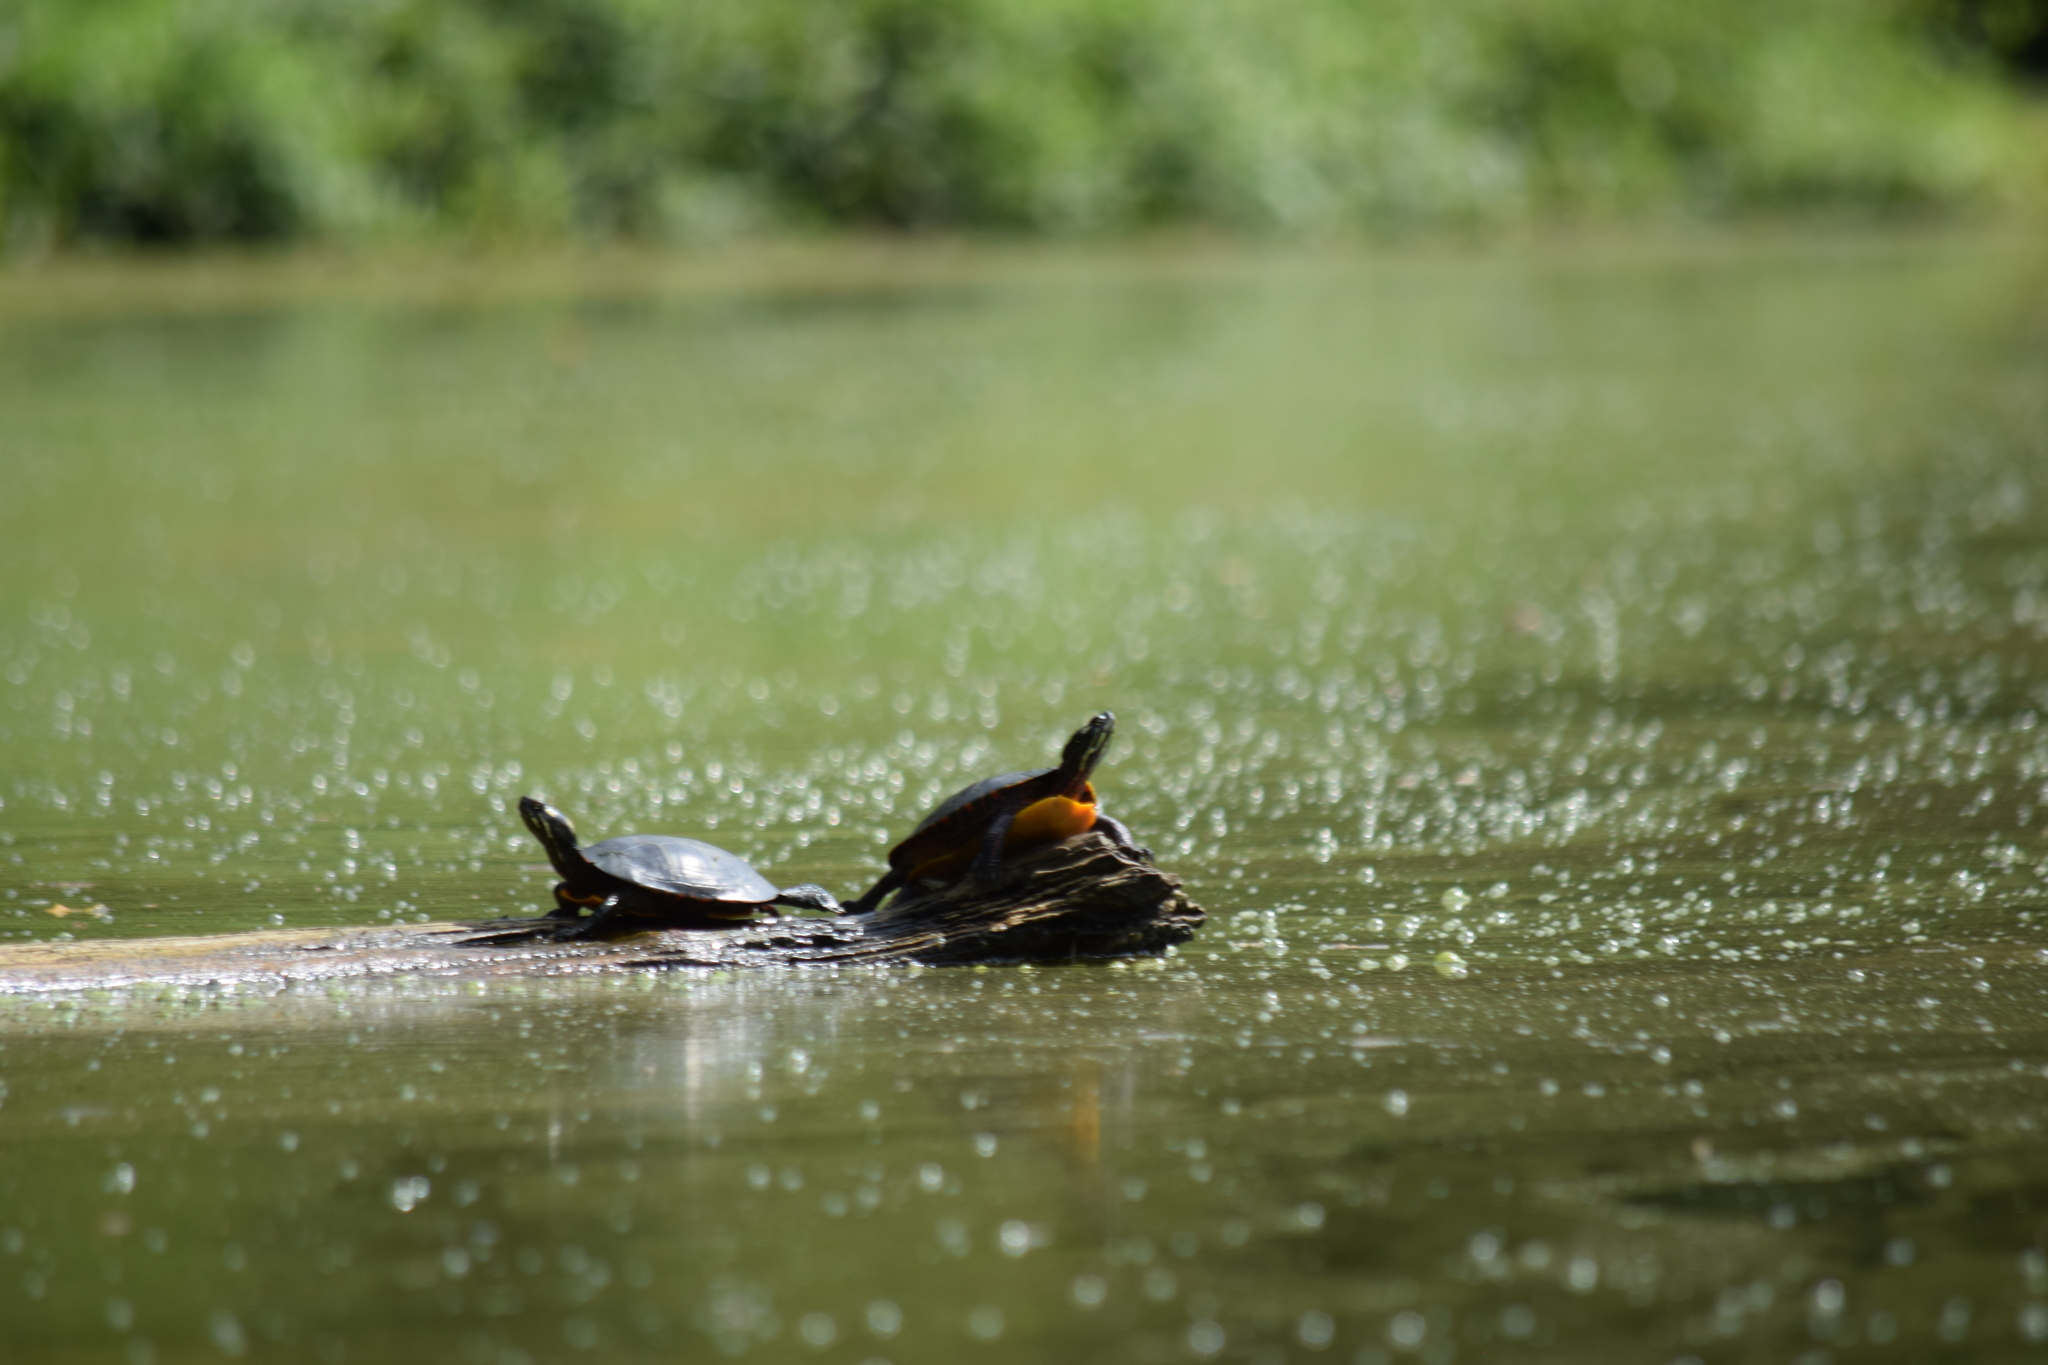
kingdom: Animalia
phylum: Chordata
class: Testudines
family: Emydidae
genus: Chrysemys
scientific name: Chrysemys picta
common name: Painted turtle
